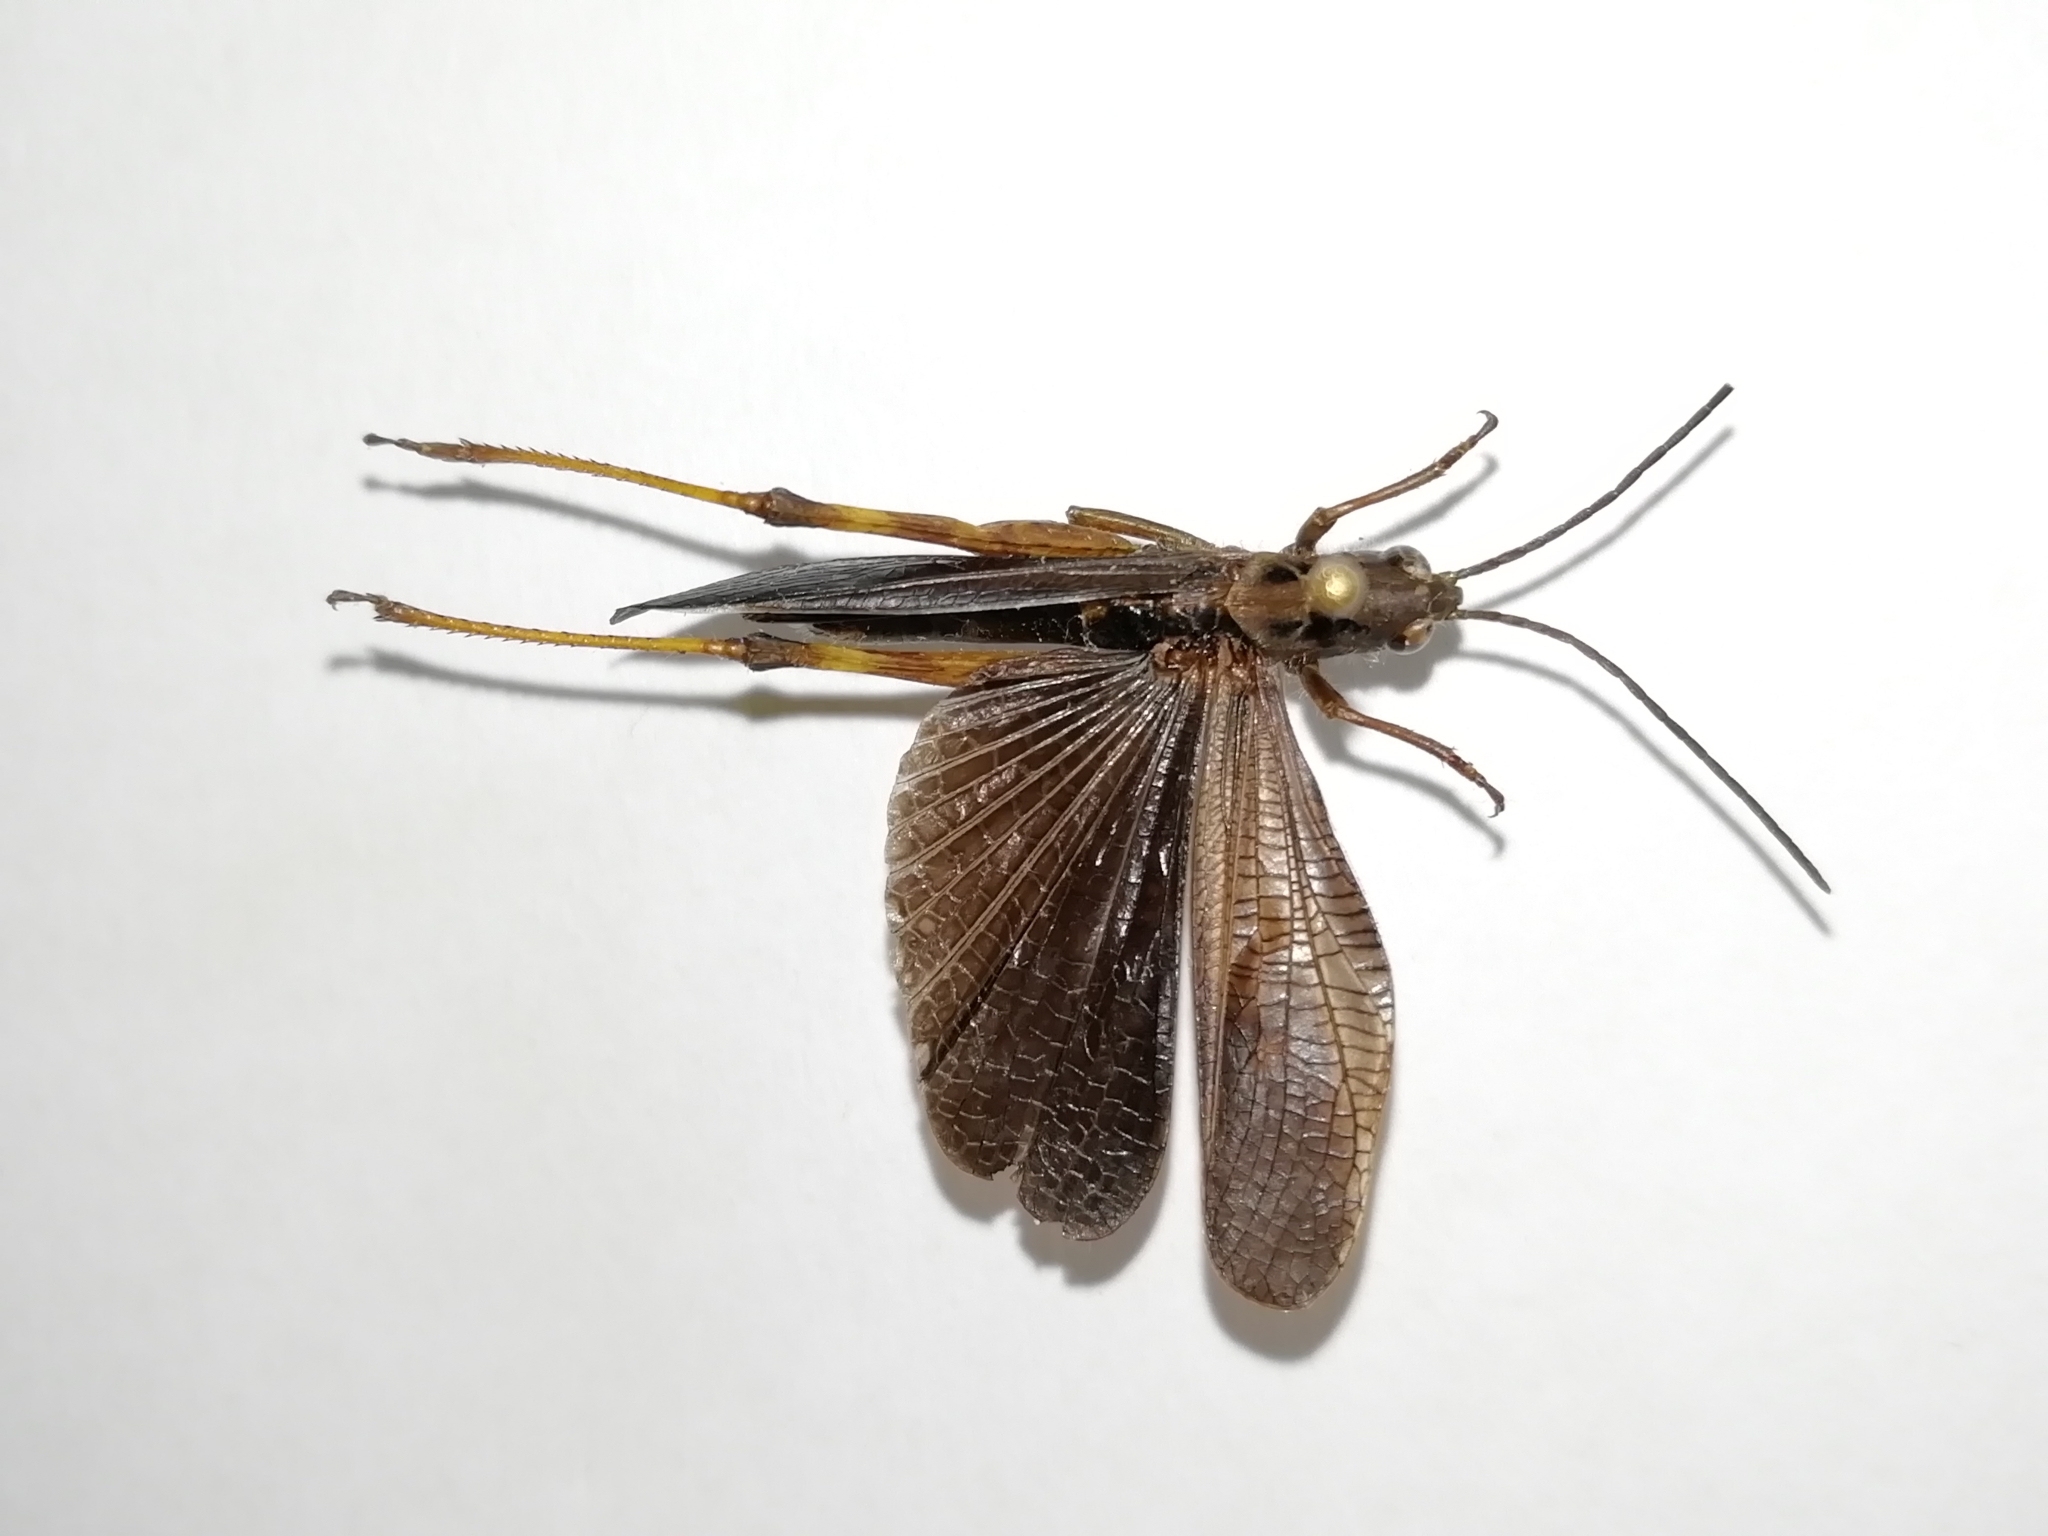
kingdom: Animalia
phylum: Arthropoda
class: Insecta
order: Orthoptera
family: Acrididae
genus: Megaulacobothrus
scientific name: Megaulacobothrus aethalinus
